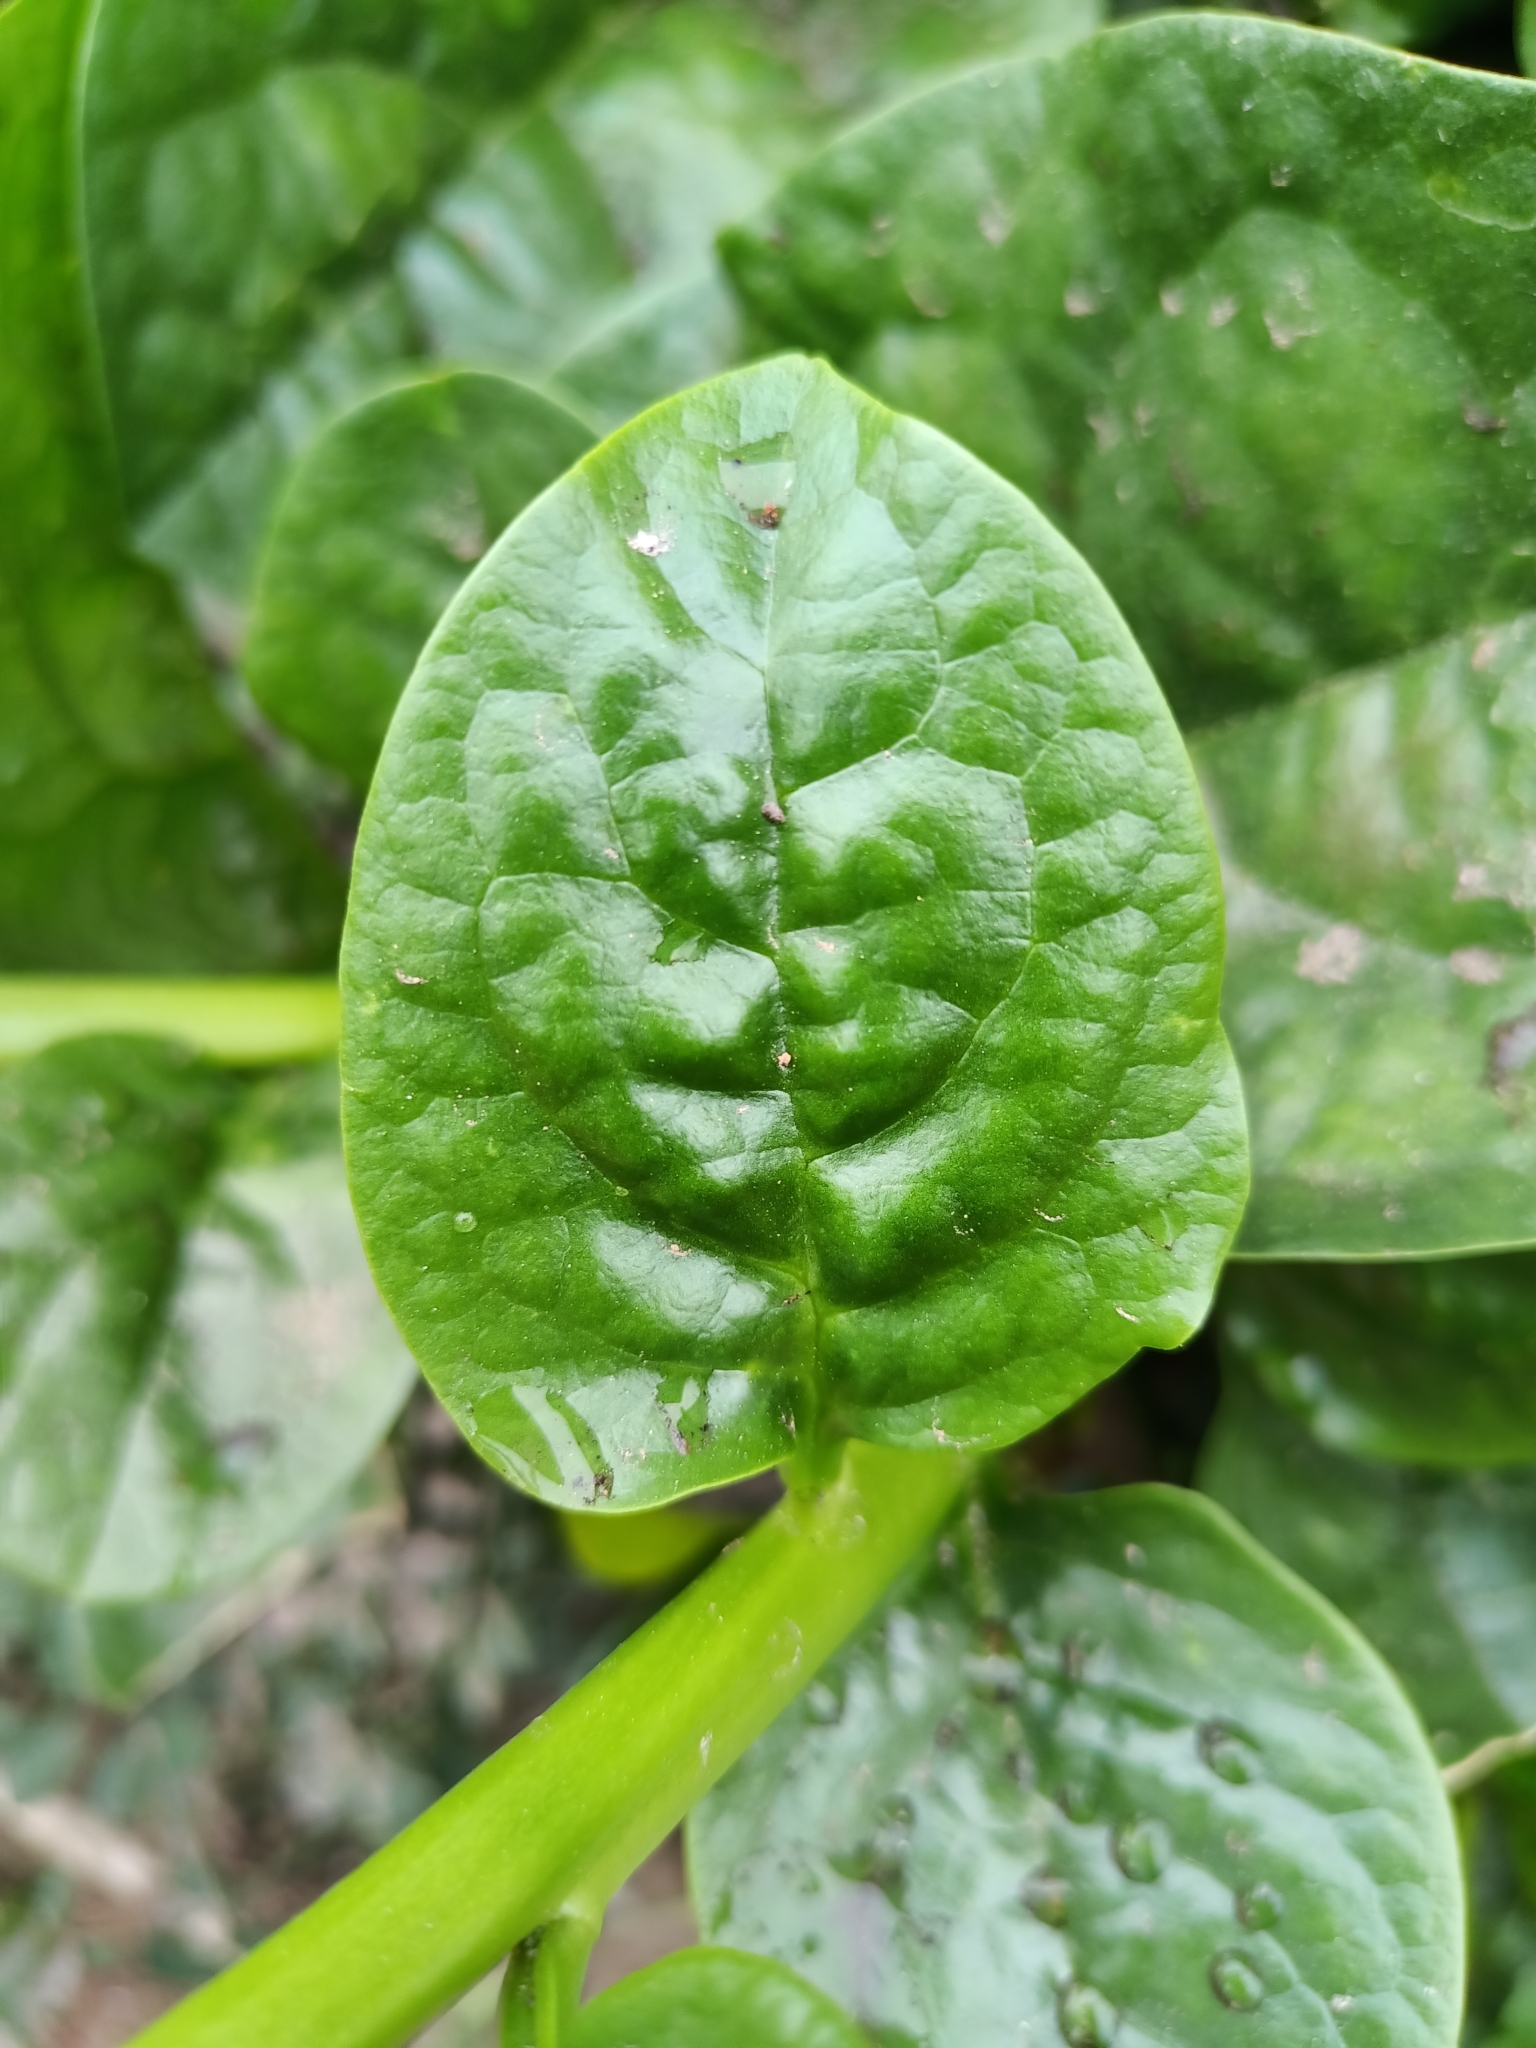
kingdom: Plantae
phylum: Tracheophyta
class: Magnoliopsida
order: Caryophyllales
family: Basellaceae
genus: Basella
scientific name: Basella alba
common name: Indian spinach
